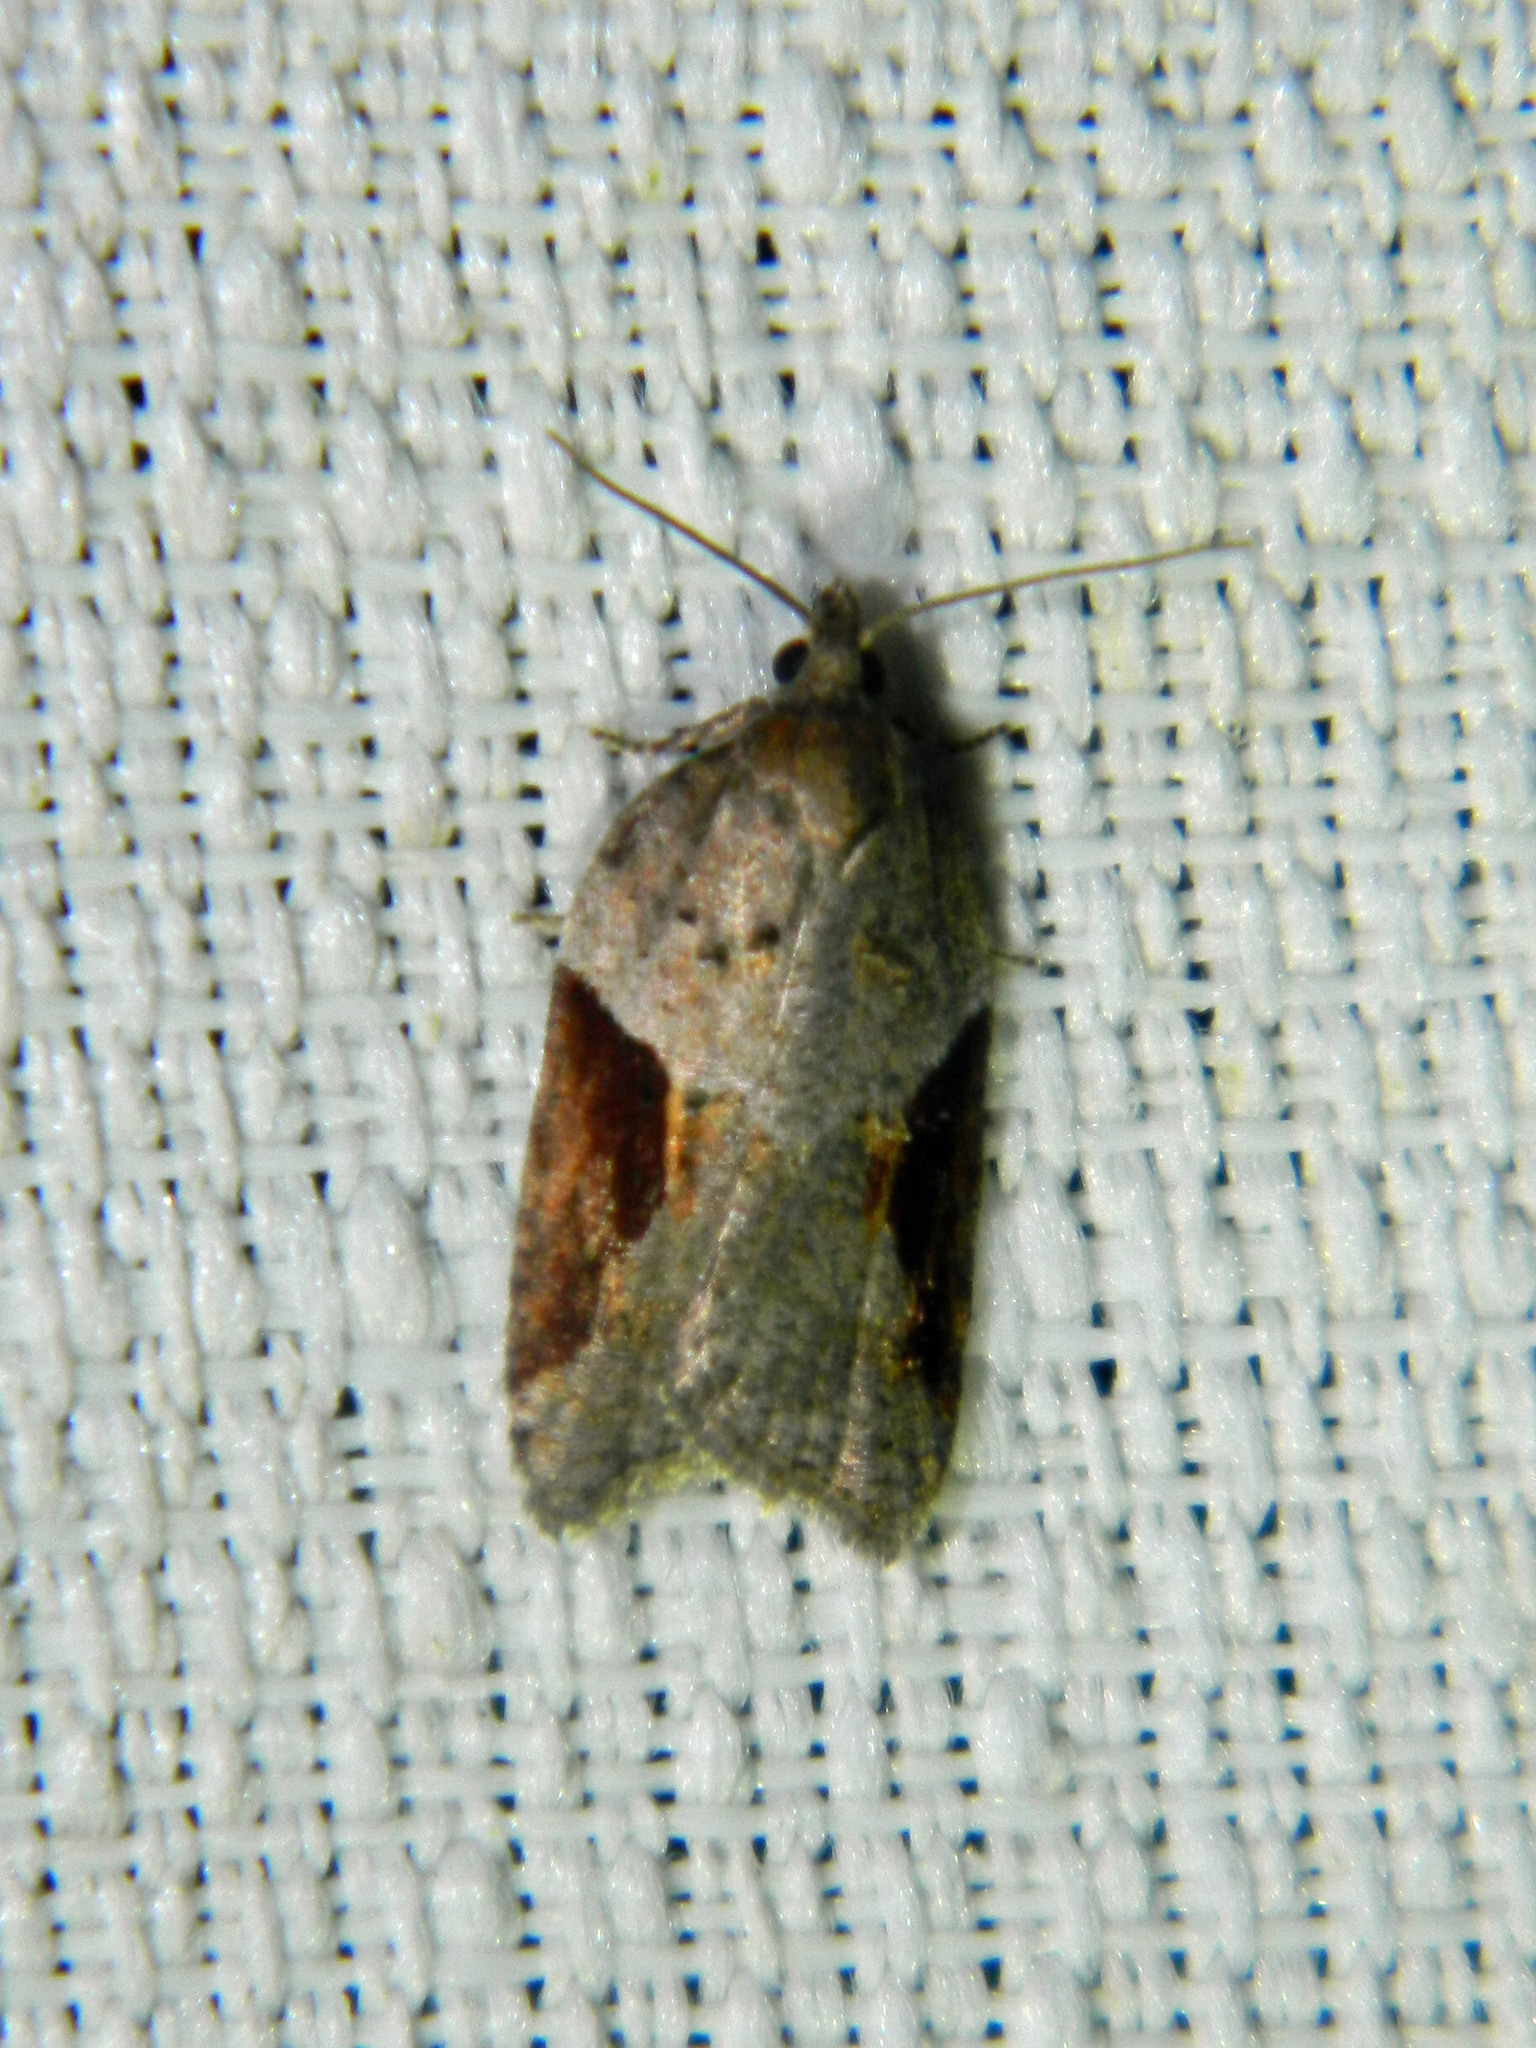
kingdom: Animalia
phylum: Arthropoda
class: Insecta
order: Lepidoptera
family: Tortricidae
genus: Acleris
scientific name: Acleris macdunnoughi
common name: Macdunnough's acleris
